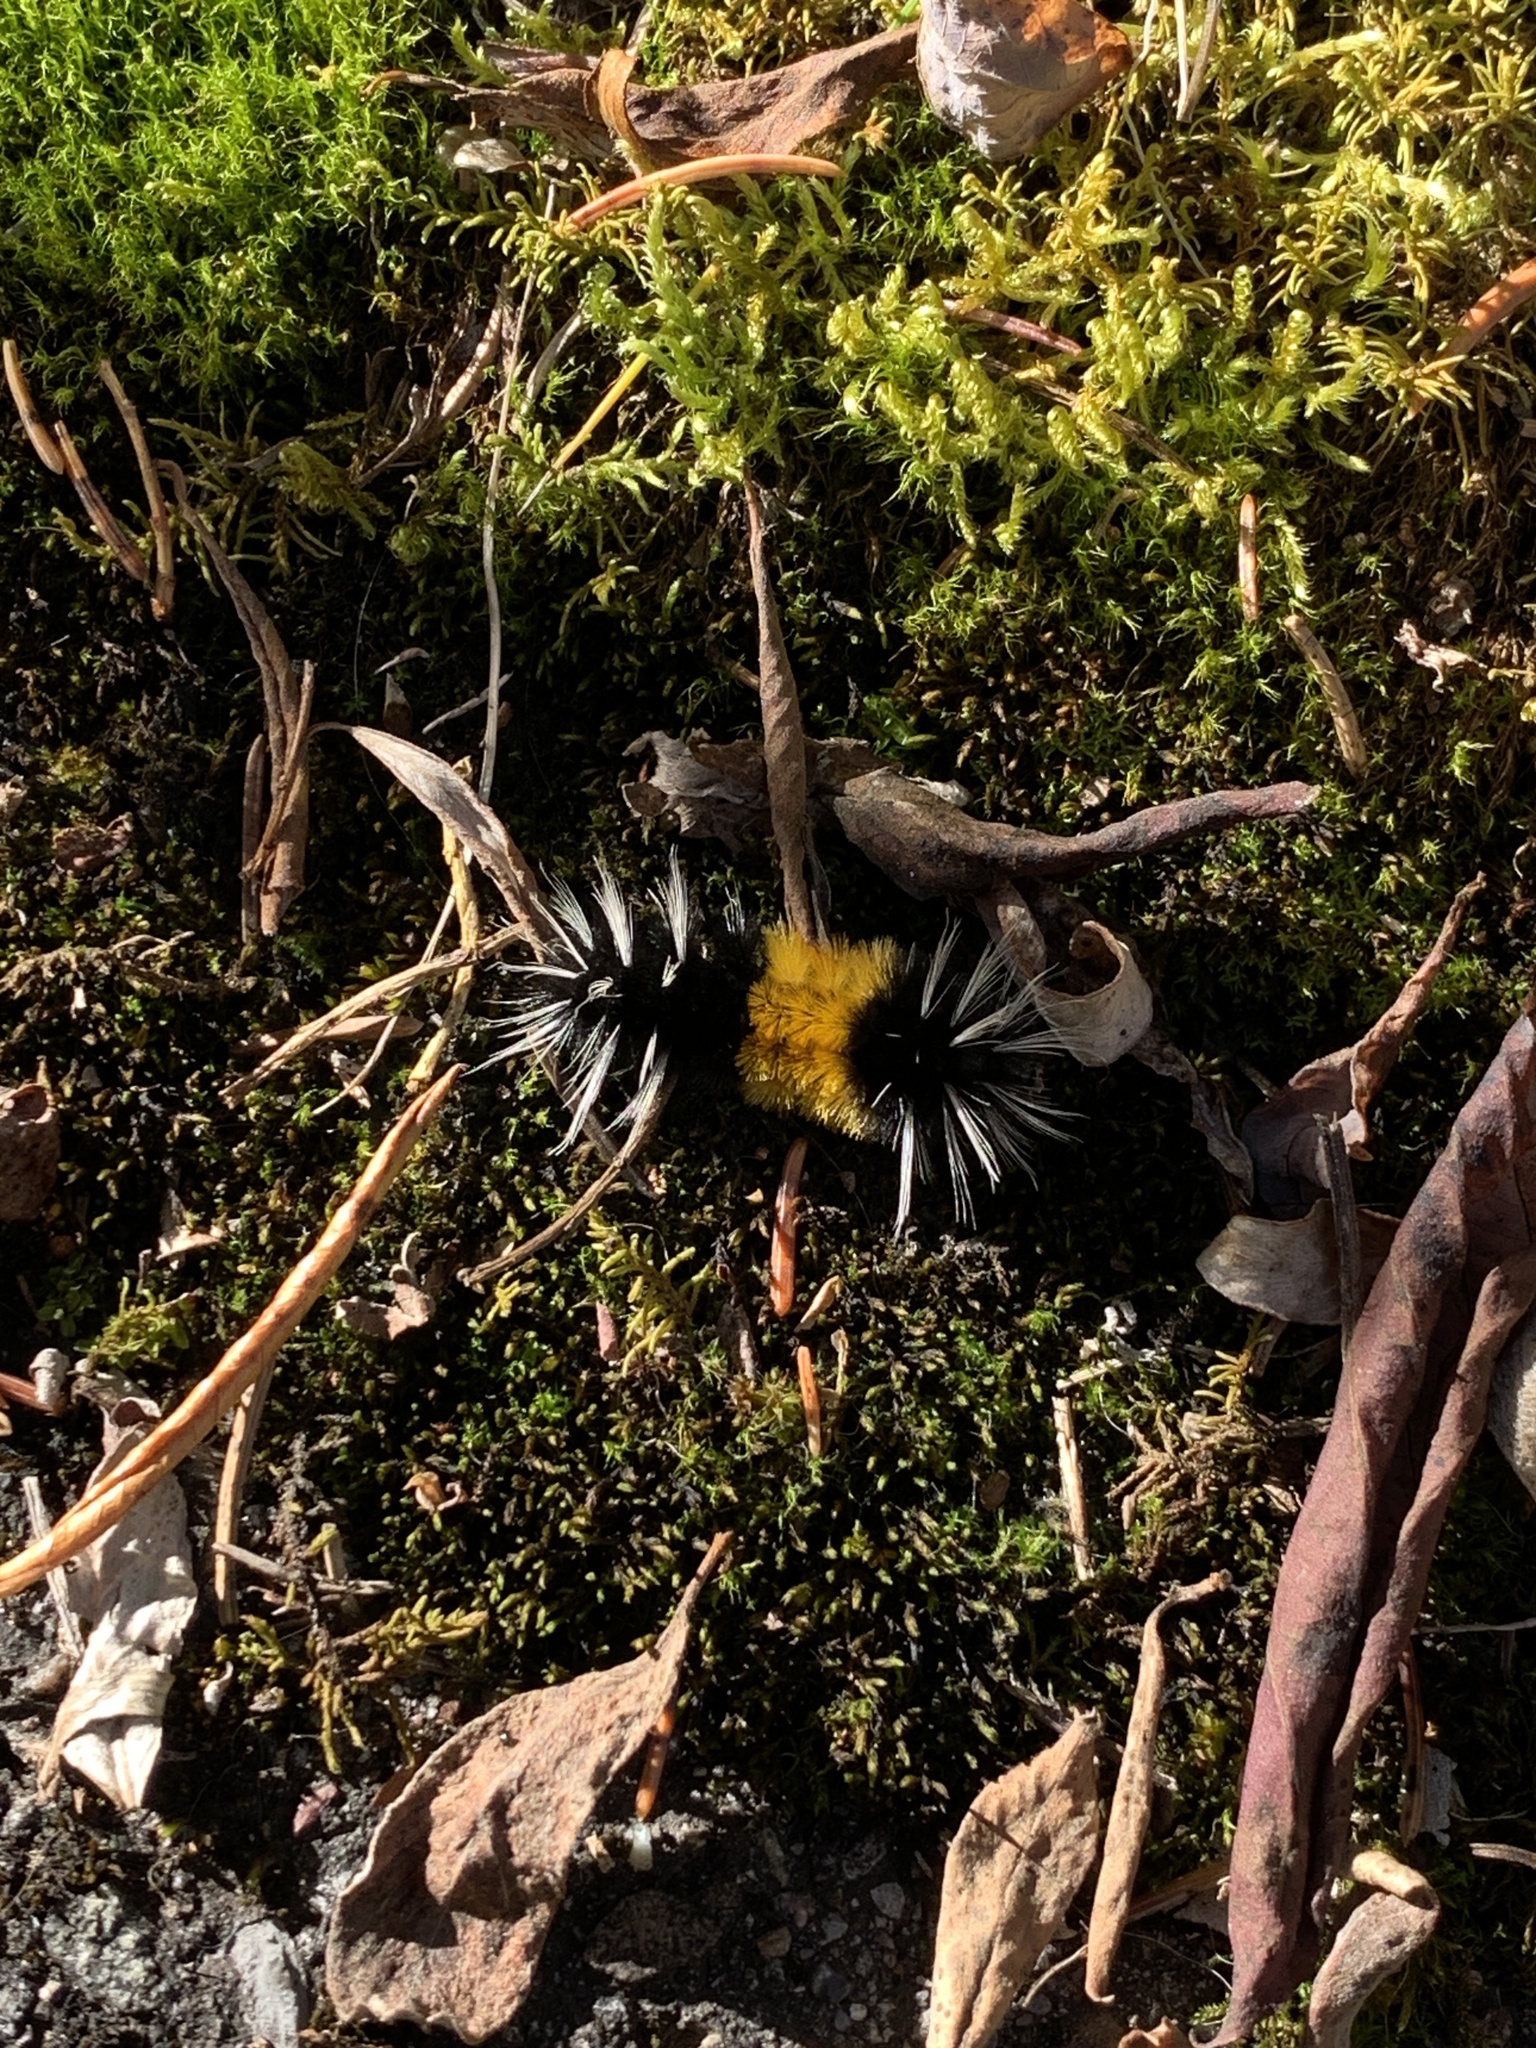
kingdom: Animalia
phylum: Arthropoda
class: Insecta
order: Lepidoptera
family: Erebidae
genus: Lophocampa
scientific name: Lophocampa maculata
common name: Spotted tussock moth
